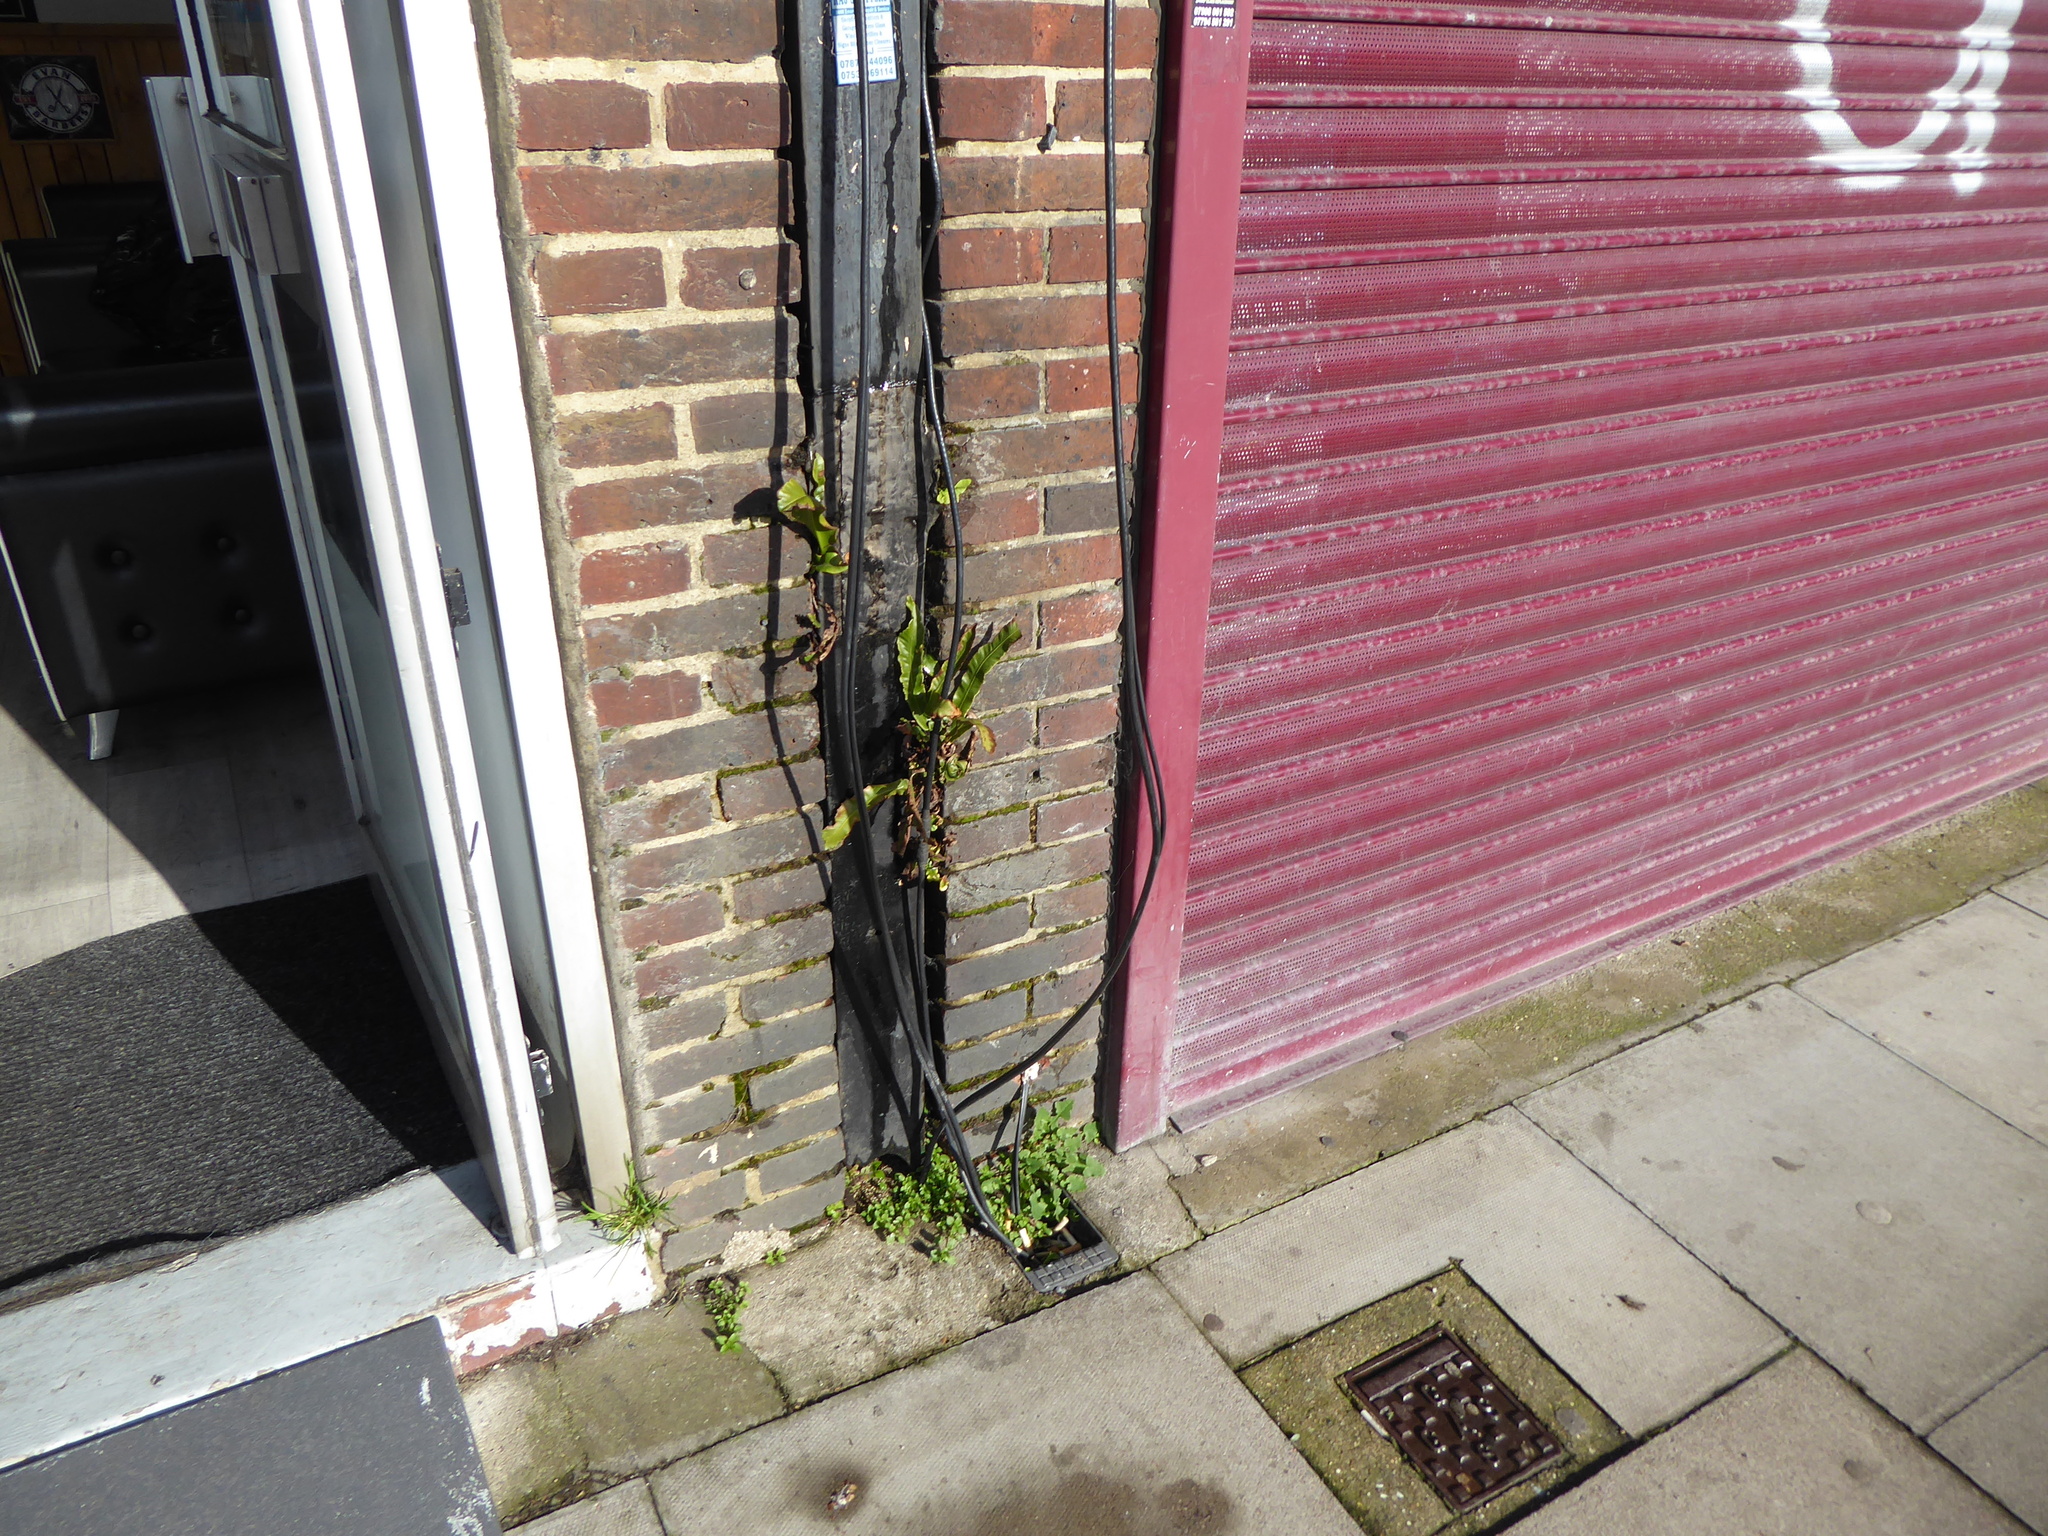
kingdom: Plantae
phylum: Tracheophyta
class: Polypodiopsida
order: Polypodiales
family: Aspleniaceae
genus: Asplenium
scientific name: Asplenium scolopendrium
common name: Hart's-tongue fern
